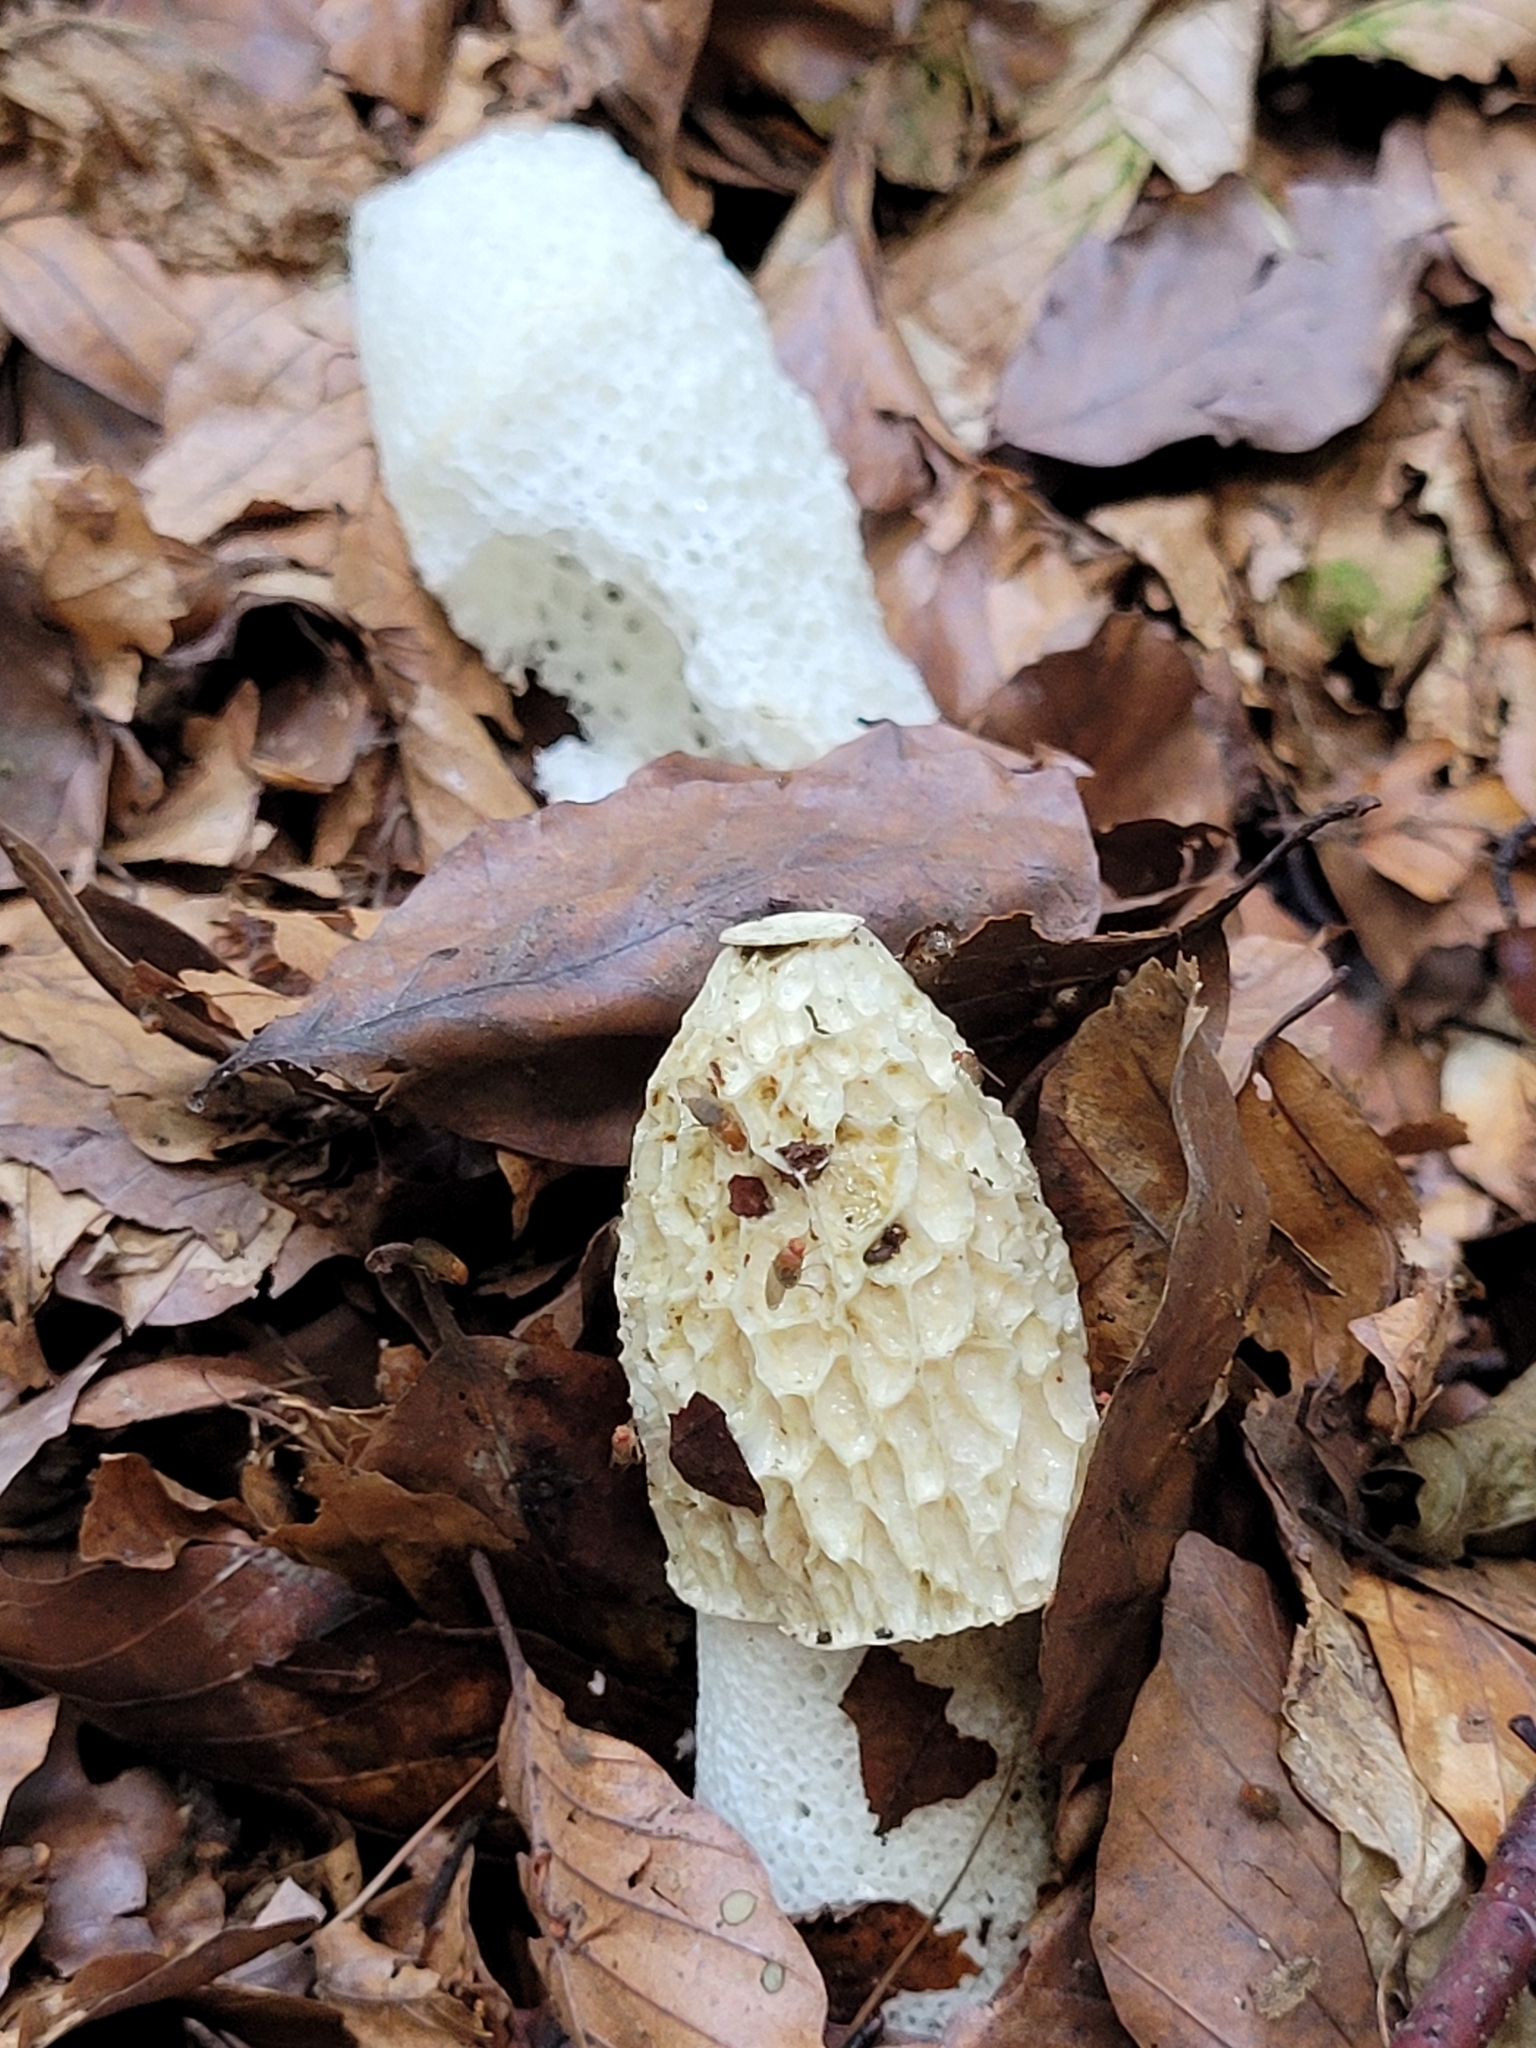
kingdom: Fungi
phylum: Basidiomycota
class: Agaricomycetes
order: Phallales
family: Phallaceae
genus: Phallus
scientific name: Phallus impudicus
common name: Common stinkhorn
